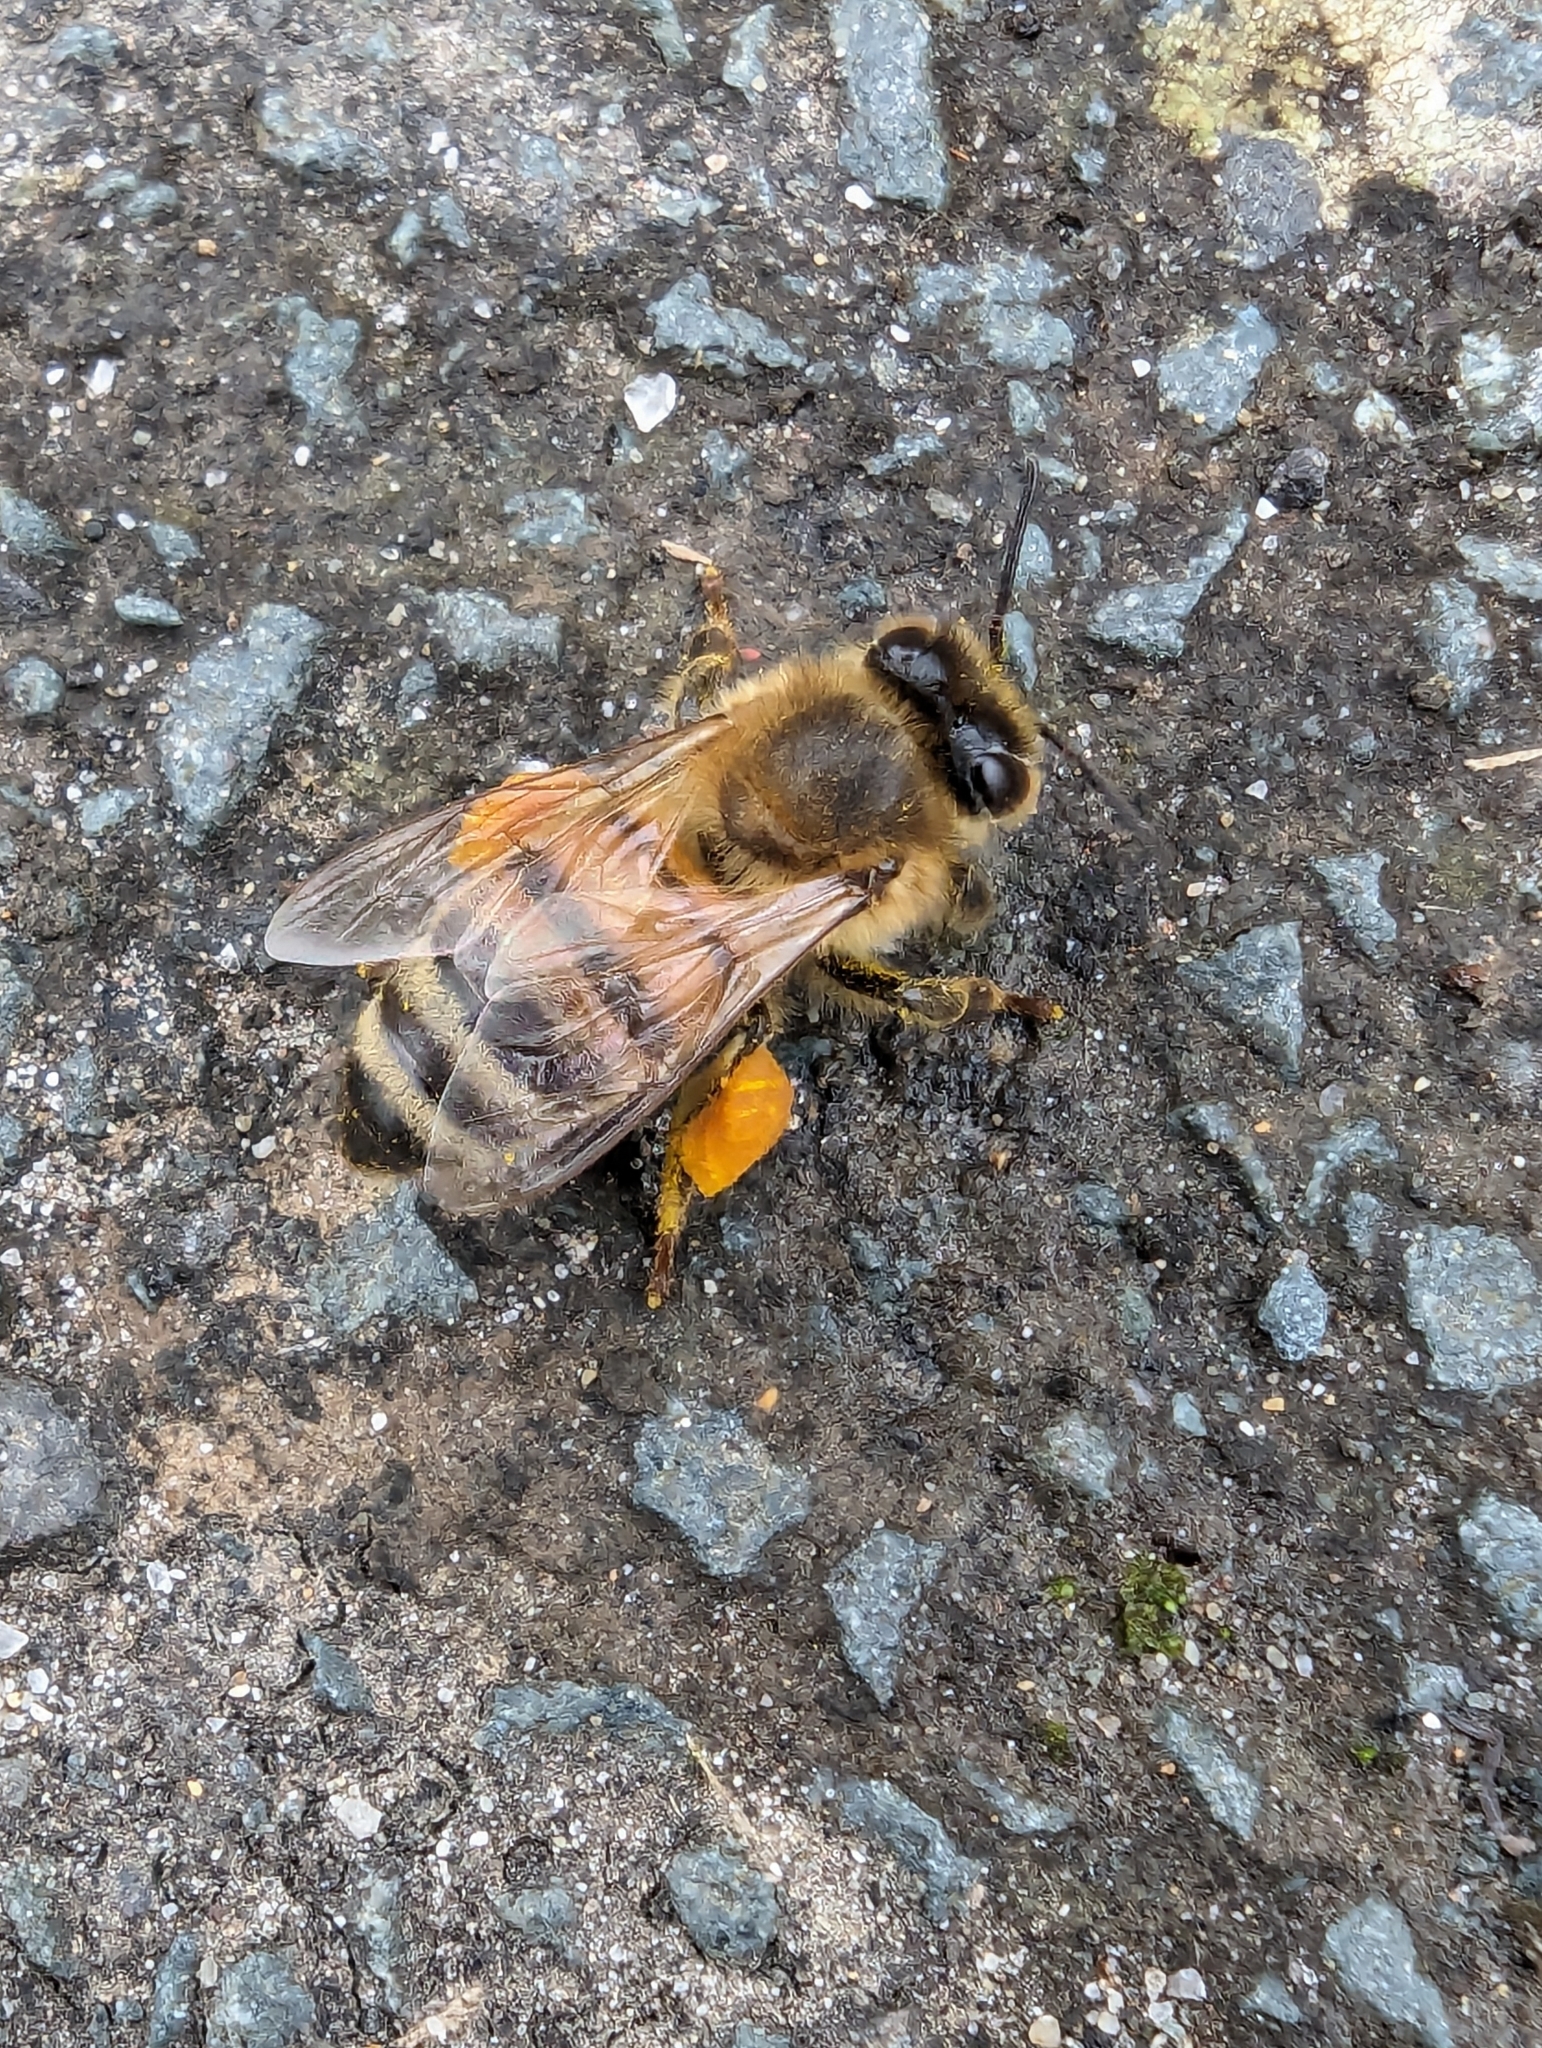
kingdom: Animalia
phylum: Arthropoda
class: Insecta
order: Hymenoptera
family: Apidae
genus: Apis
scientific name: Apis mellifera
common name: Honey bee
